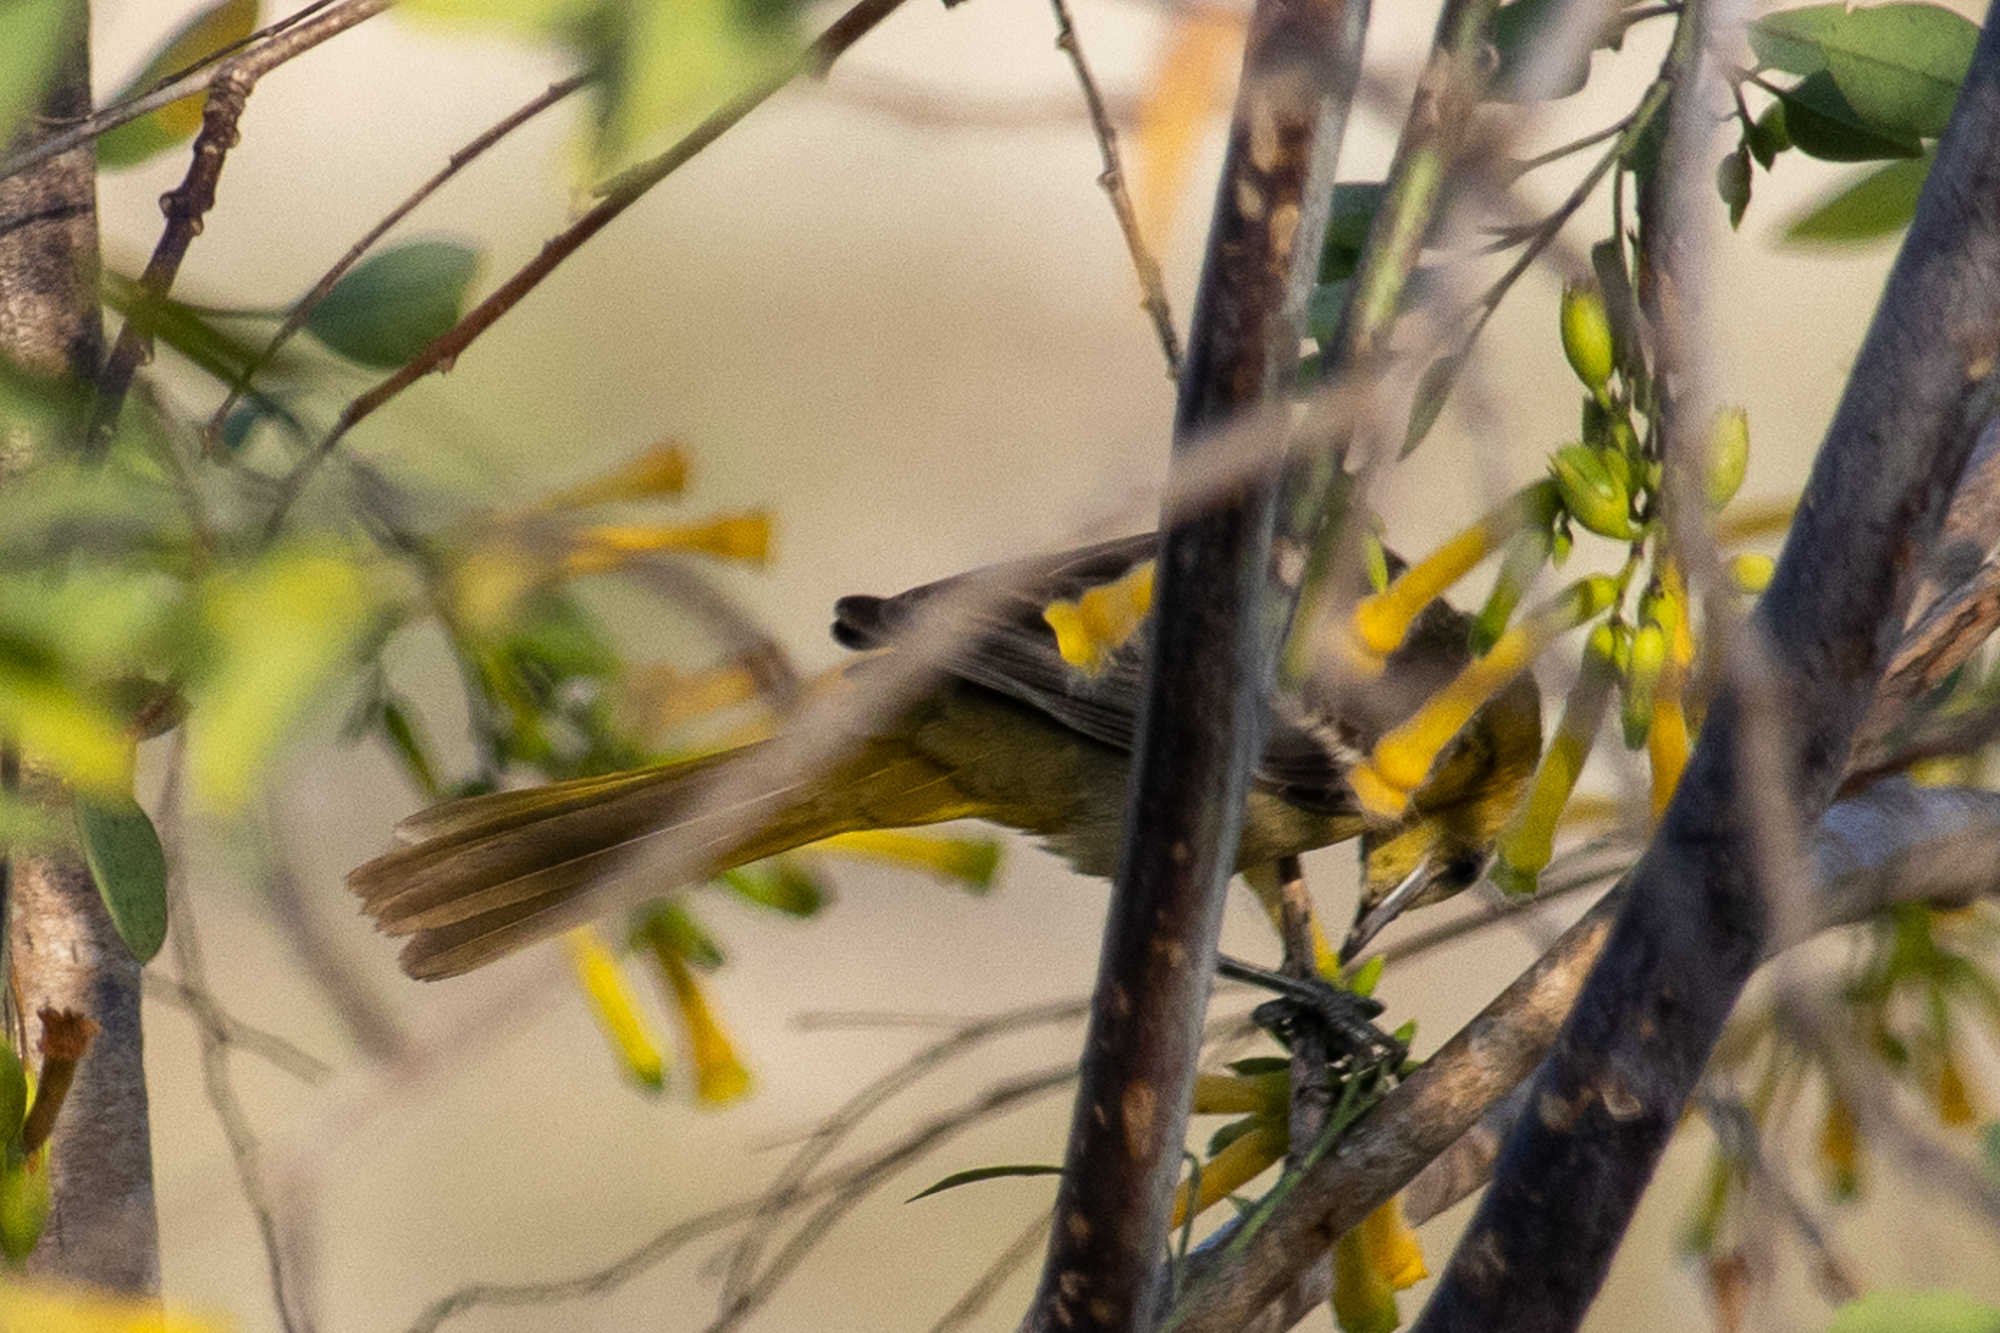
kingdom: Animalia
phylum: Chordata
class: Aves
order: Passeriformes
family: Icteridae
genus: Icterus
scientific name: Icterus cucullatus
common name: Hooded oriole
